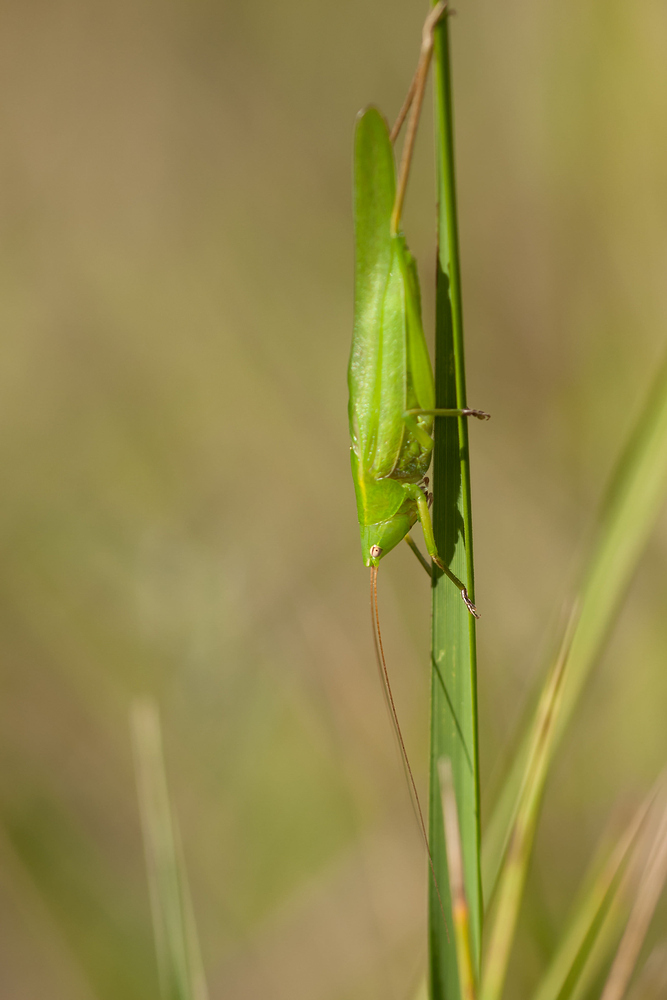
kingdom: Animalia
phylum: Arthropoda
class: Insecta
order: Orthoptera
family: Tettigoniidae
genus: Ruspolia
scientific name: Ruspolia nitidula
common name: Large conehead
